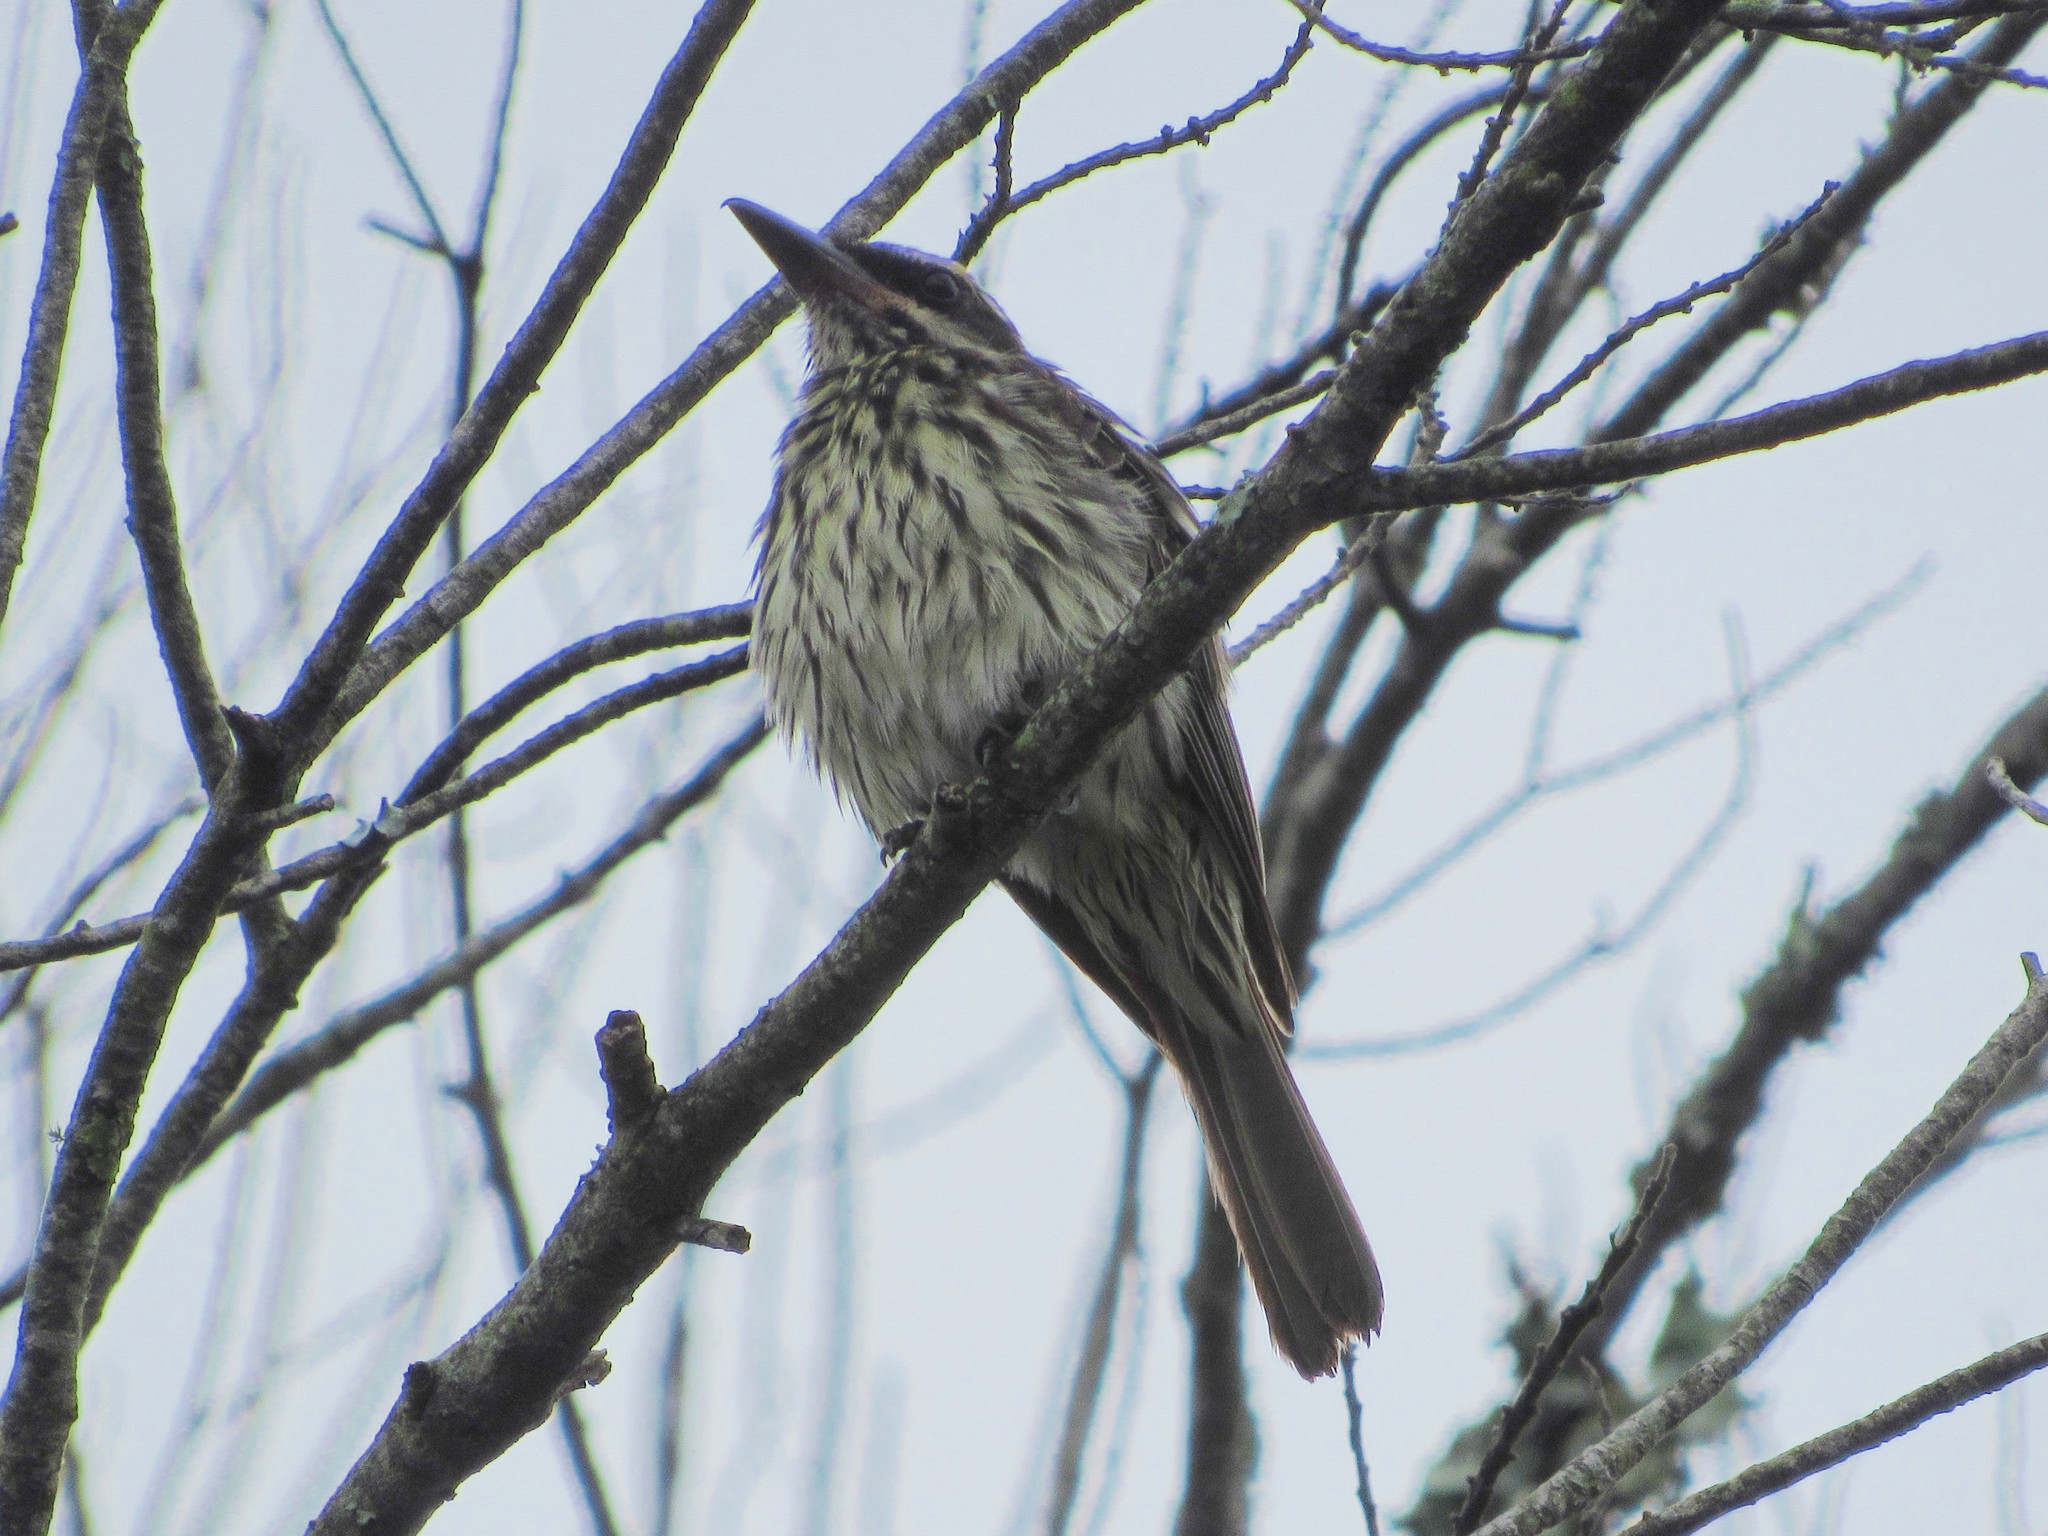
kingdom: Animalia
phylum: Chordata
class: Aves
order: Passeriformes
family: Tyrannidae
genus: Myiodynastes
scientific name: Myiodynastes maculatus
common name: Streaked flycatcher
